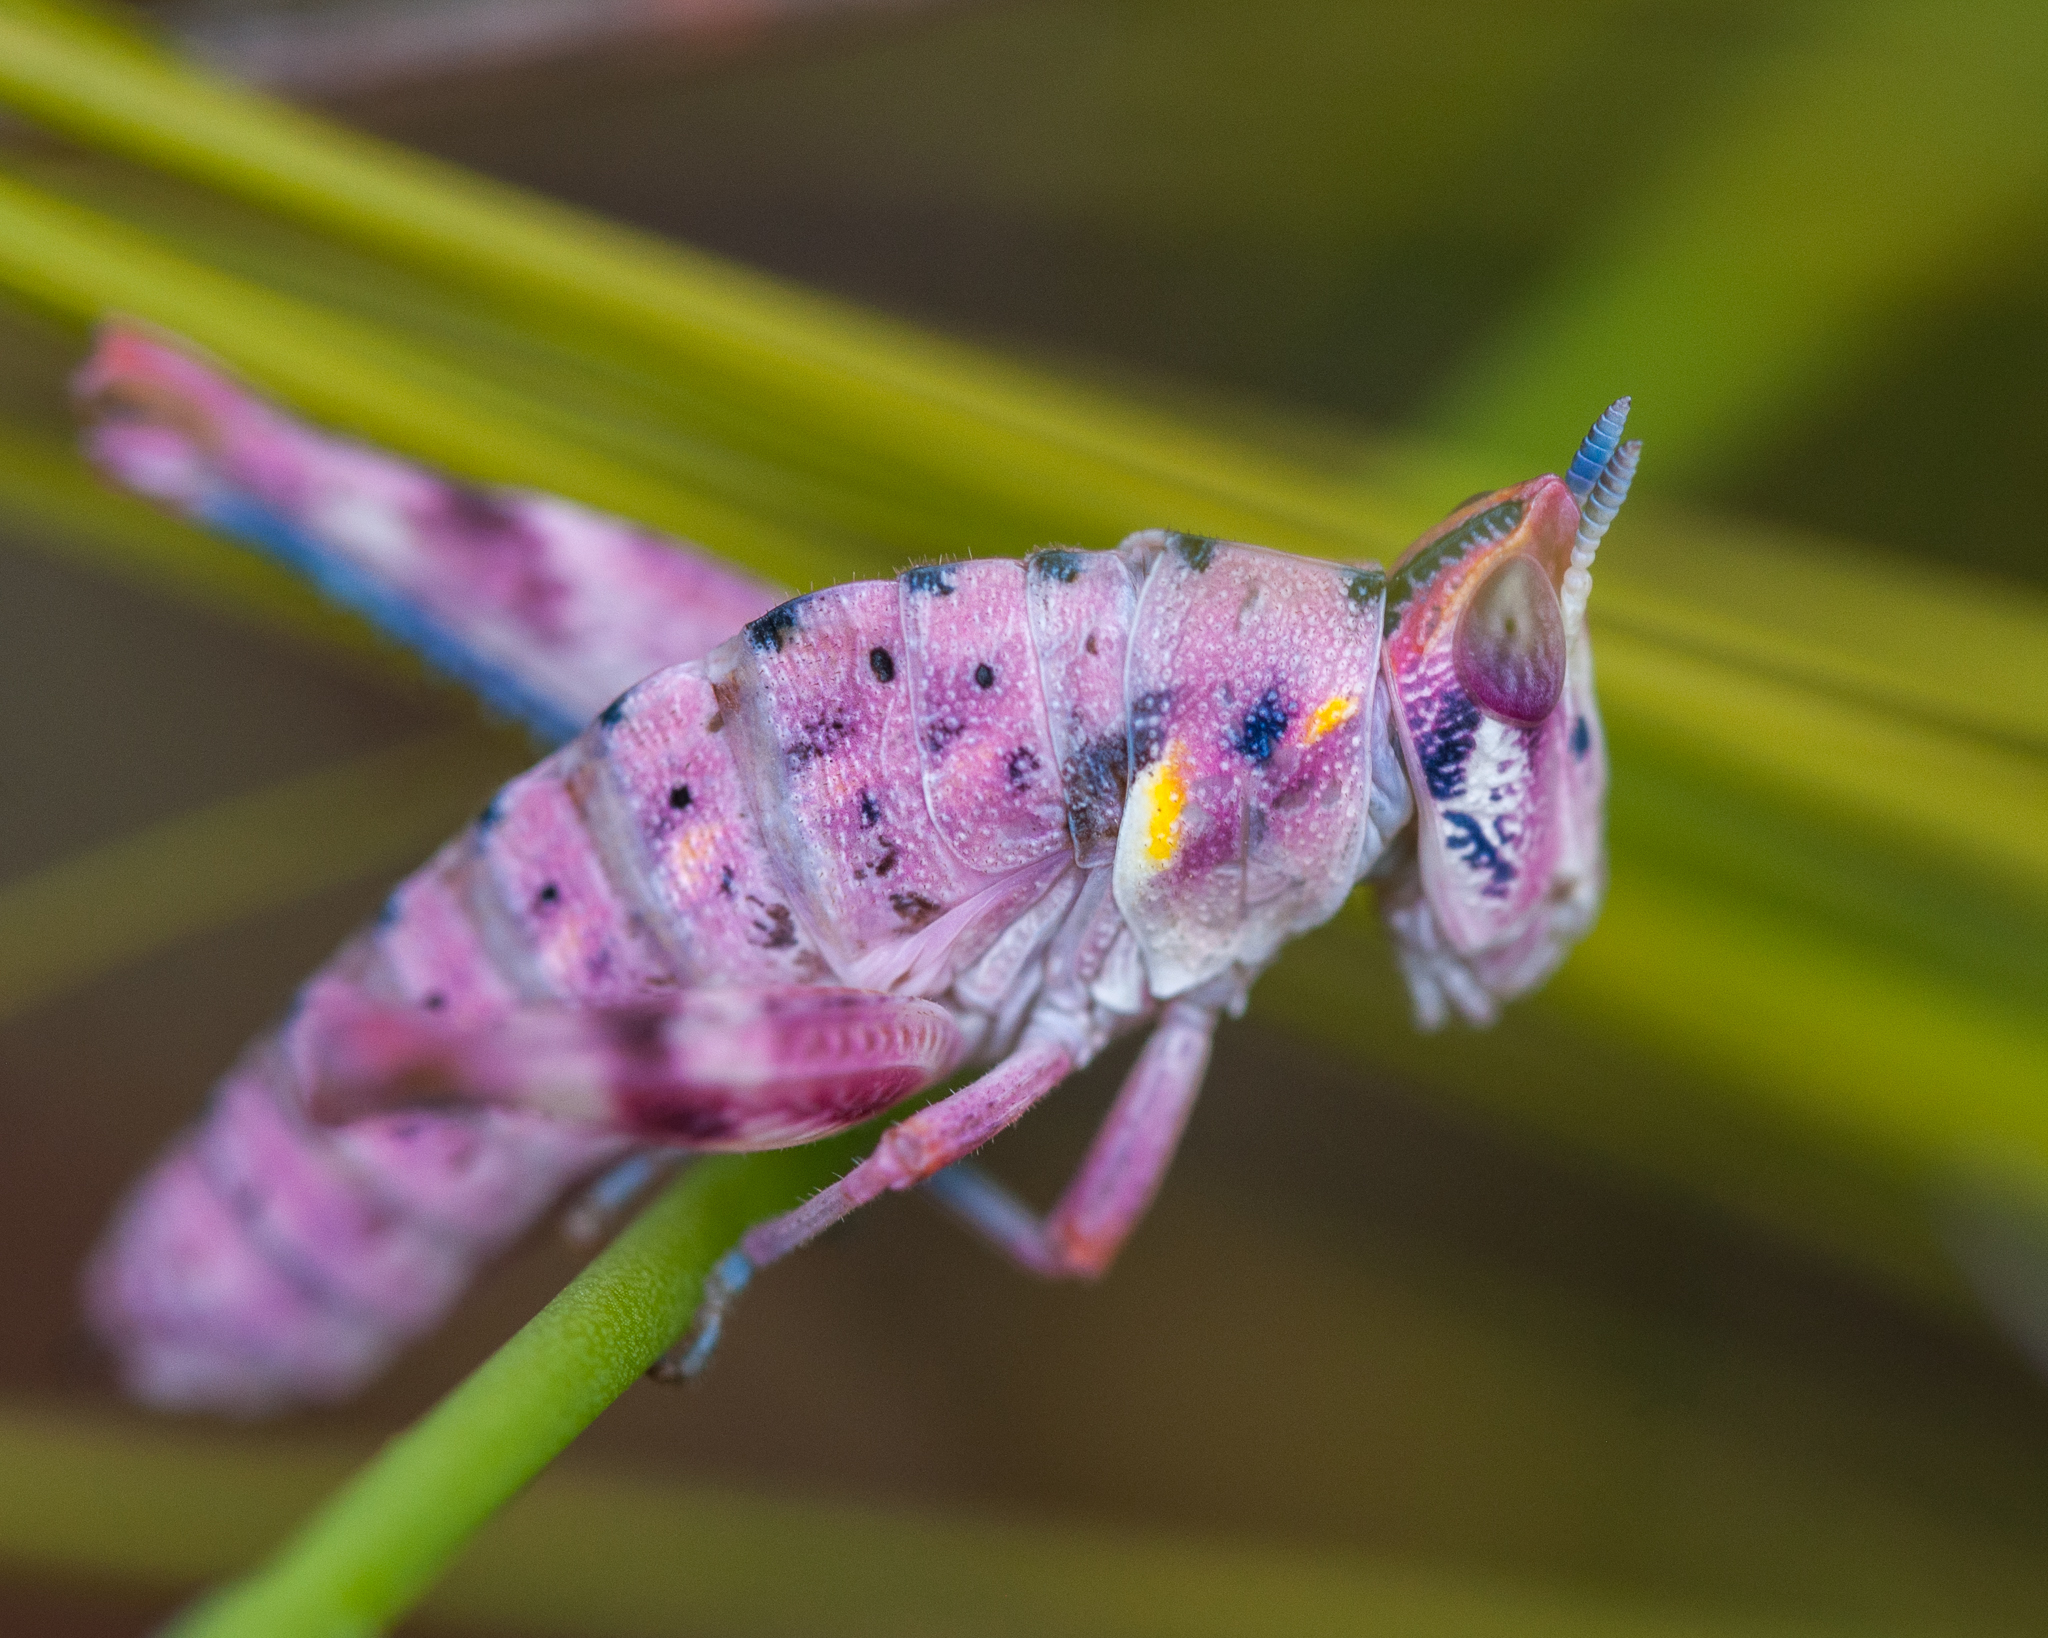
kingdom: Animalia
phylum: Arthropoda
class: Insecta
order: Orthoptera
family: Thericleidae
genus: Thericlesiella
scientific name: Thericlesiella meridionalis
